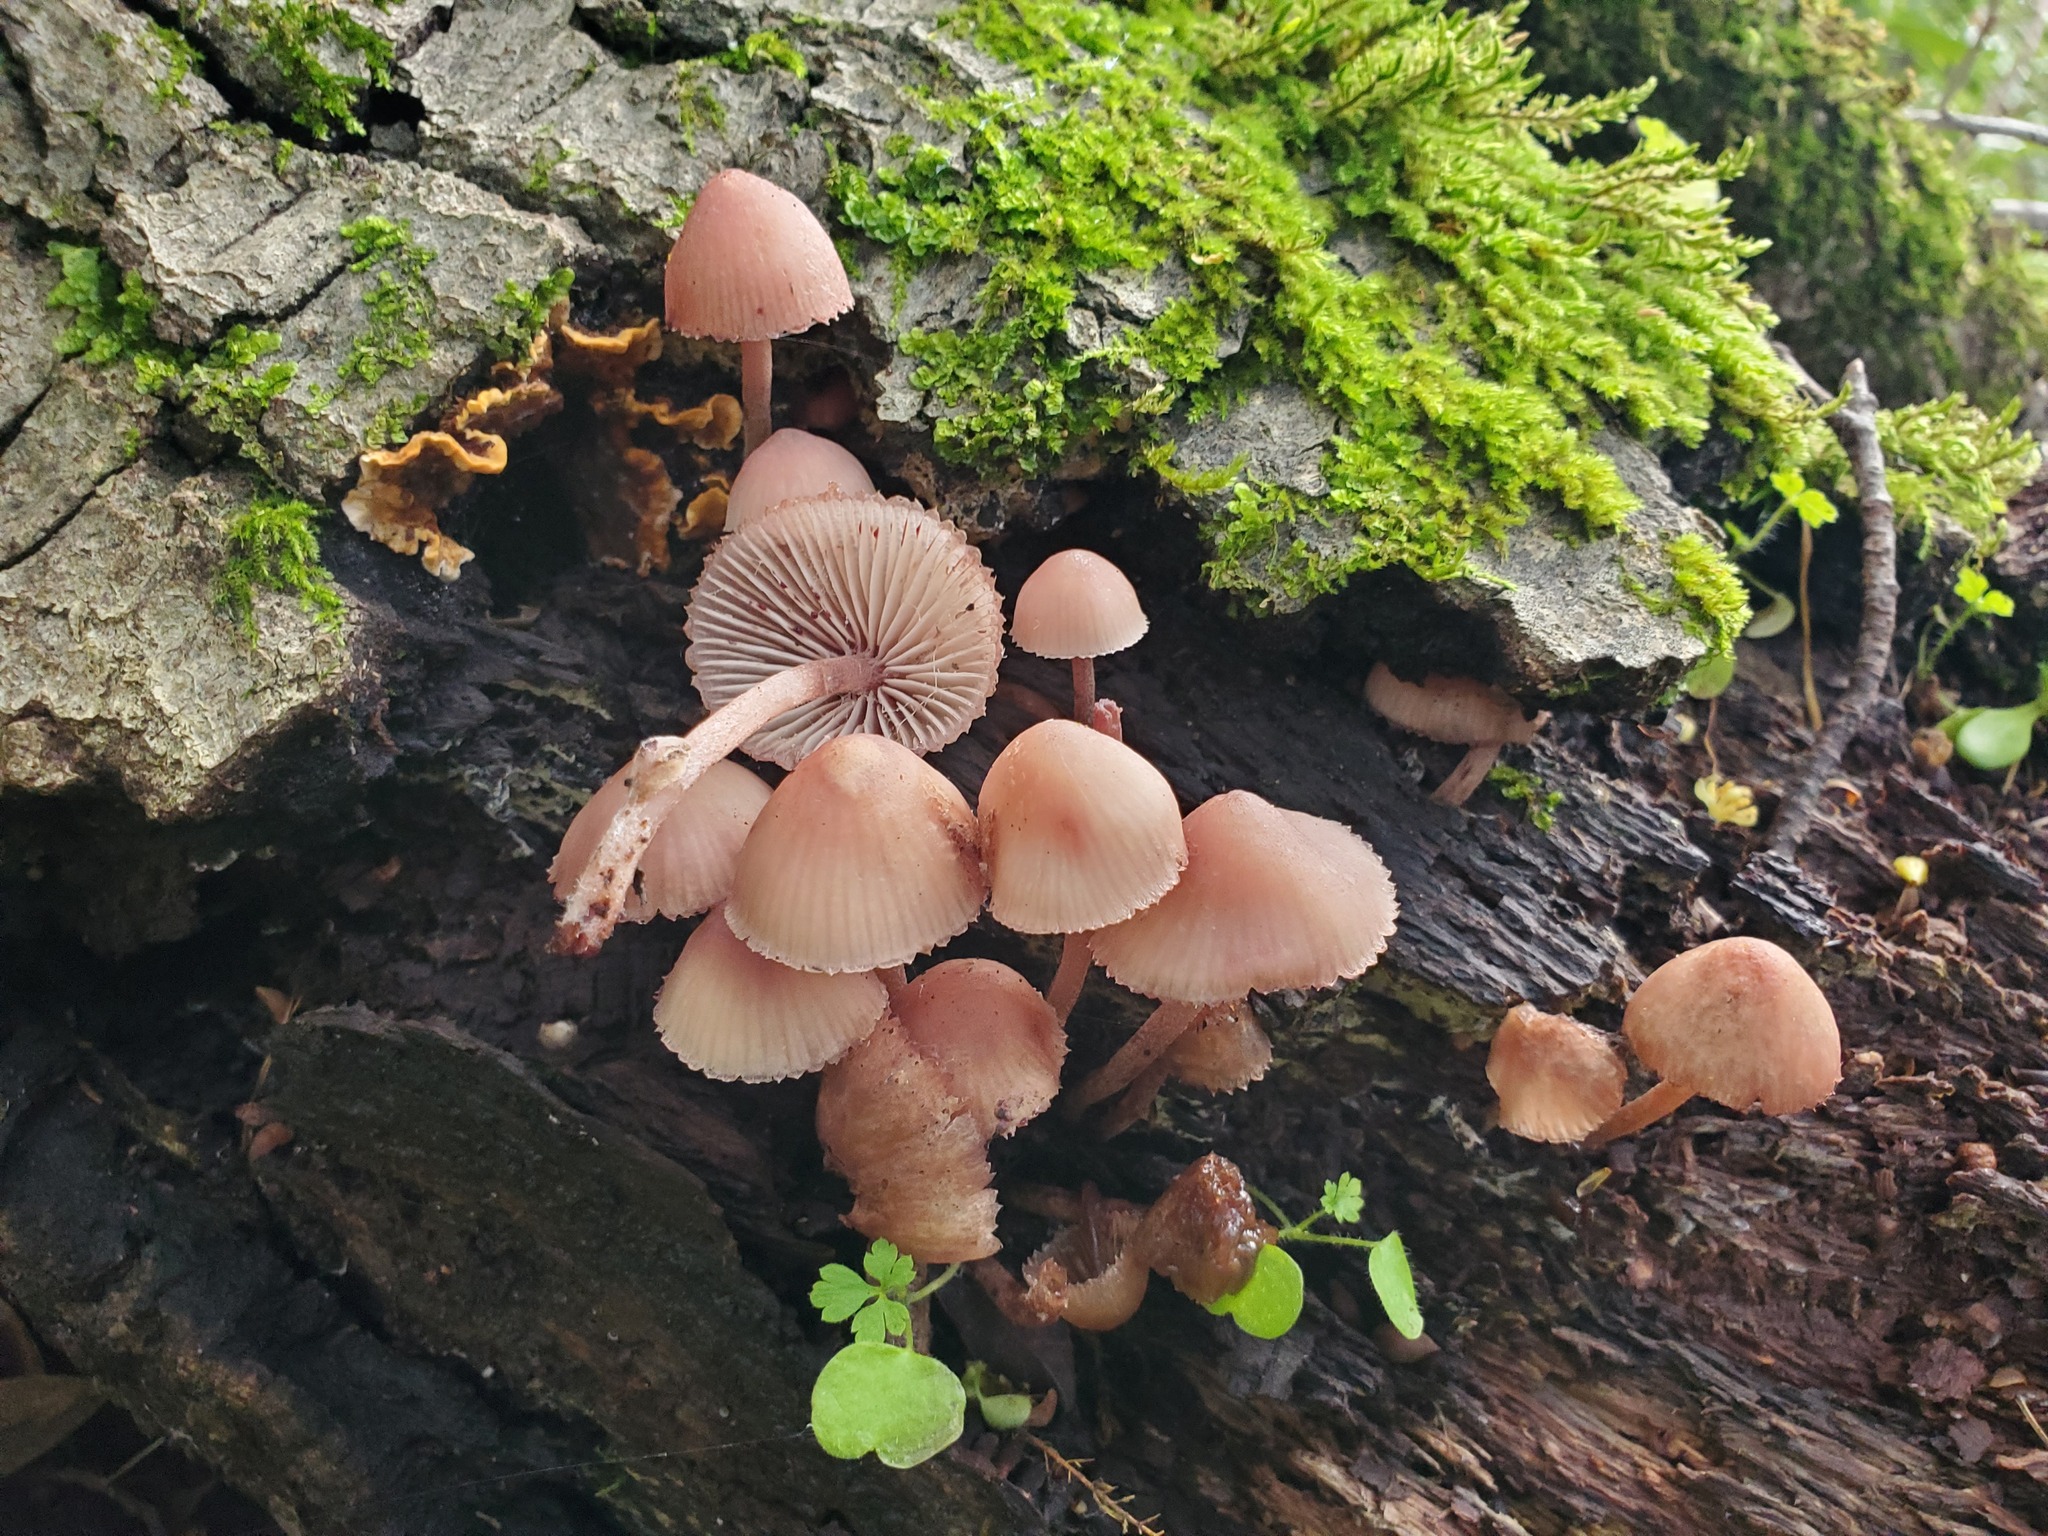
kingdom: Fungi
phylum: Basidiomycota
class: Agaricomycetes
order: Agaricales
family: Mycenaceae
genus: Mycena
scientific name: Mycena haematopus
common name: Burgundydrop bonnet
